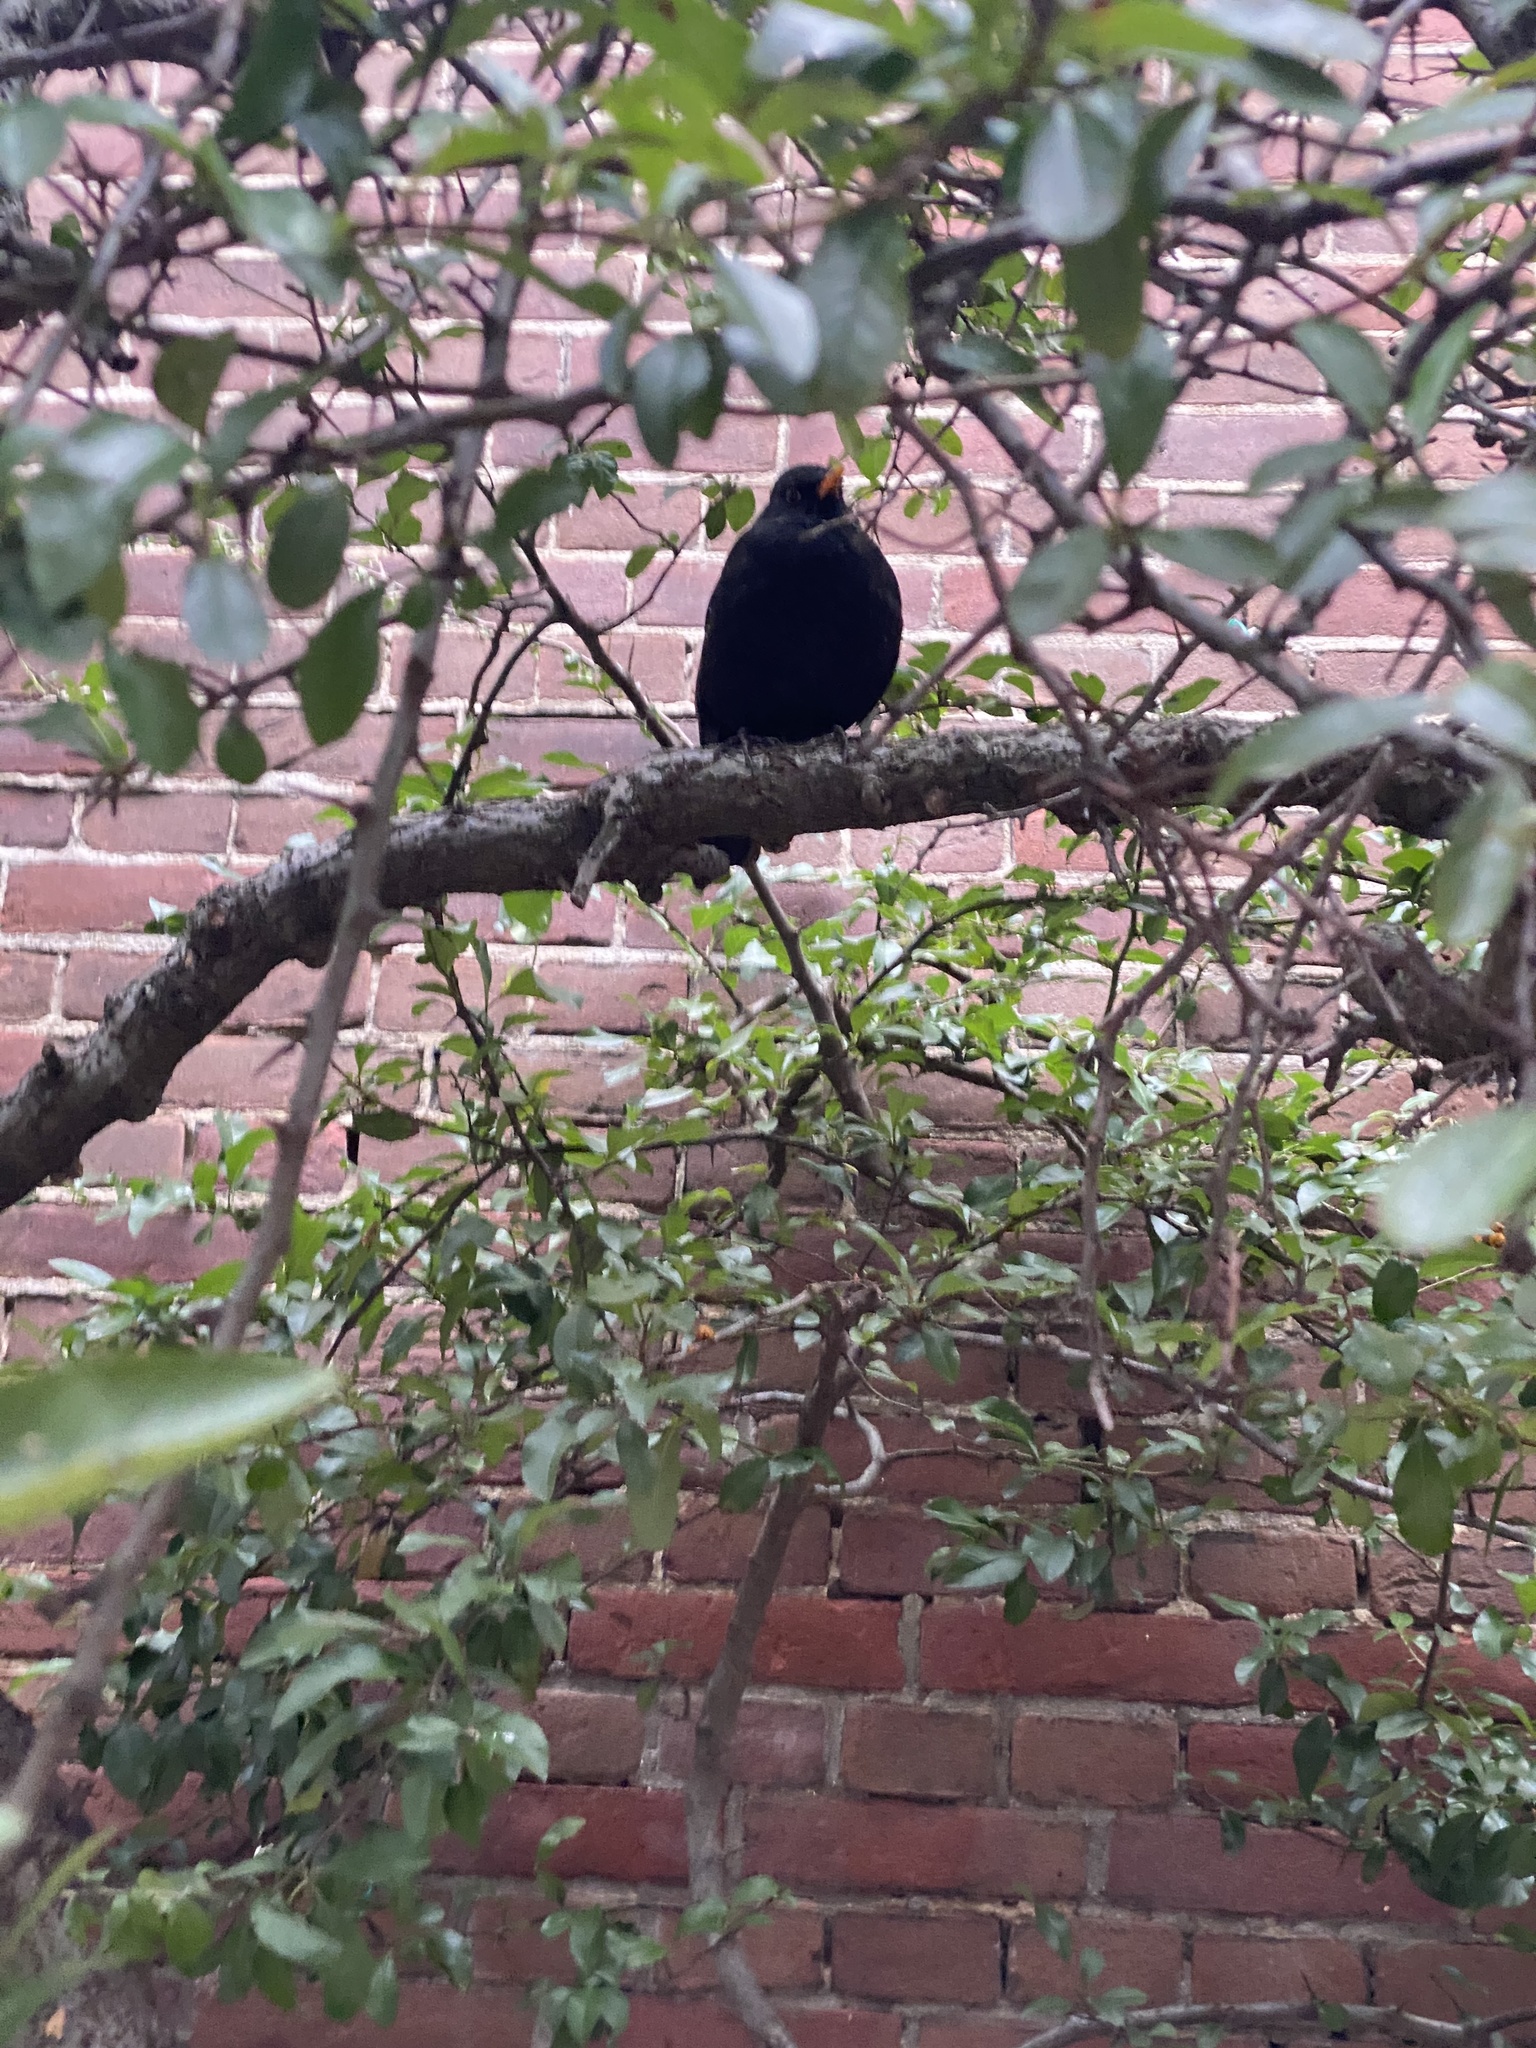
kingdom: Animalia
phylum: Chordata
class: Aves
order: Passeriformes
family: Turdidae
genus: Turdus
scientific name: Turdus merula
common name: Common blackbird
